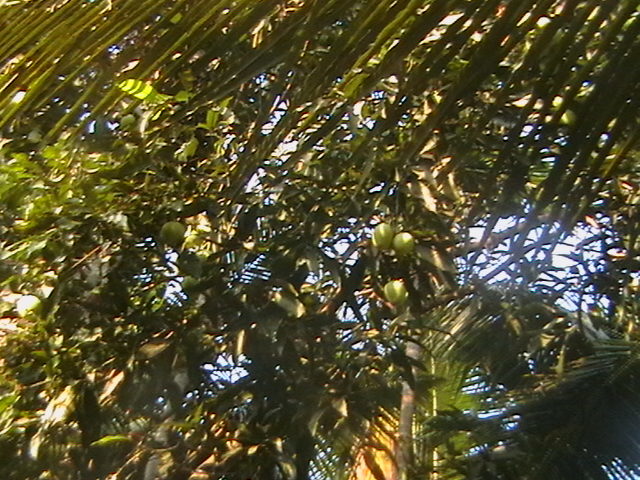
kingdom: Plantae
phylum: Tracheophyta
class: Magnoliopsida
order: Sapindales
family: Anacardiaceae
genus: Mangifera
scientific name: Mangifera indica
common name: Mango
